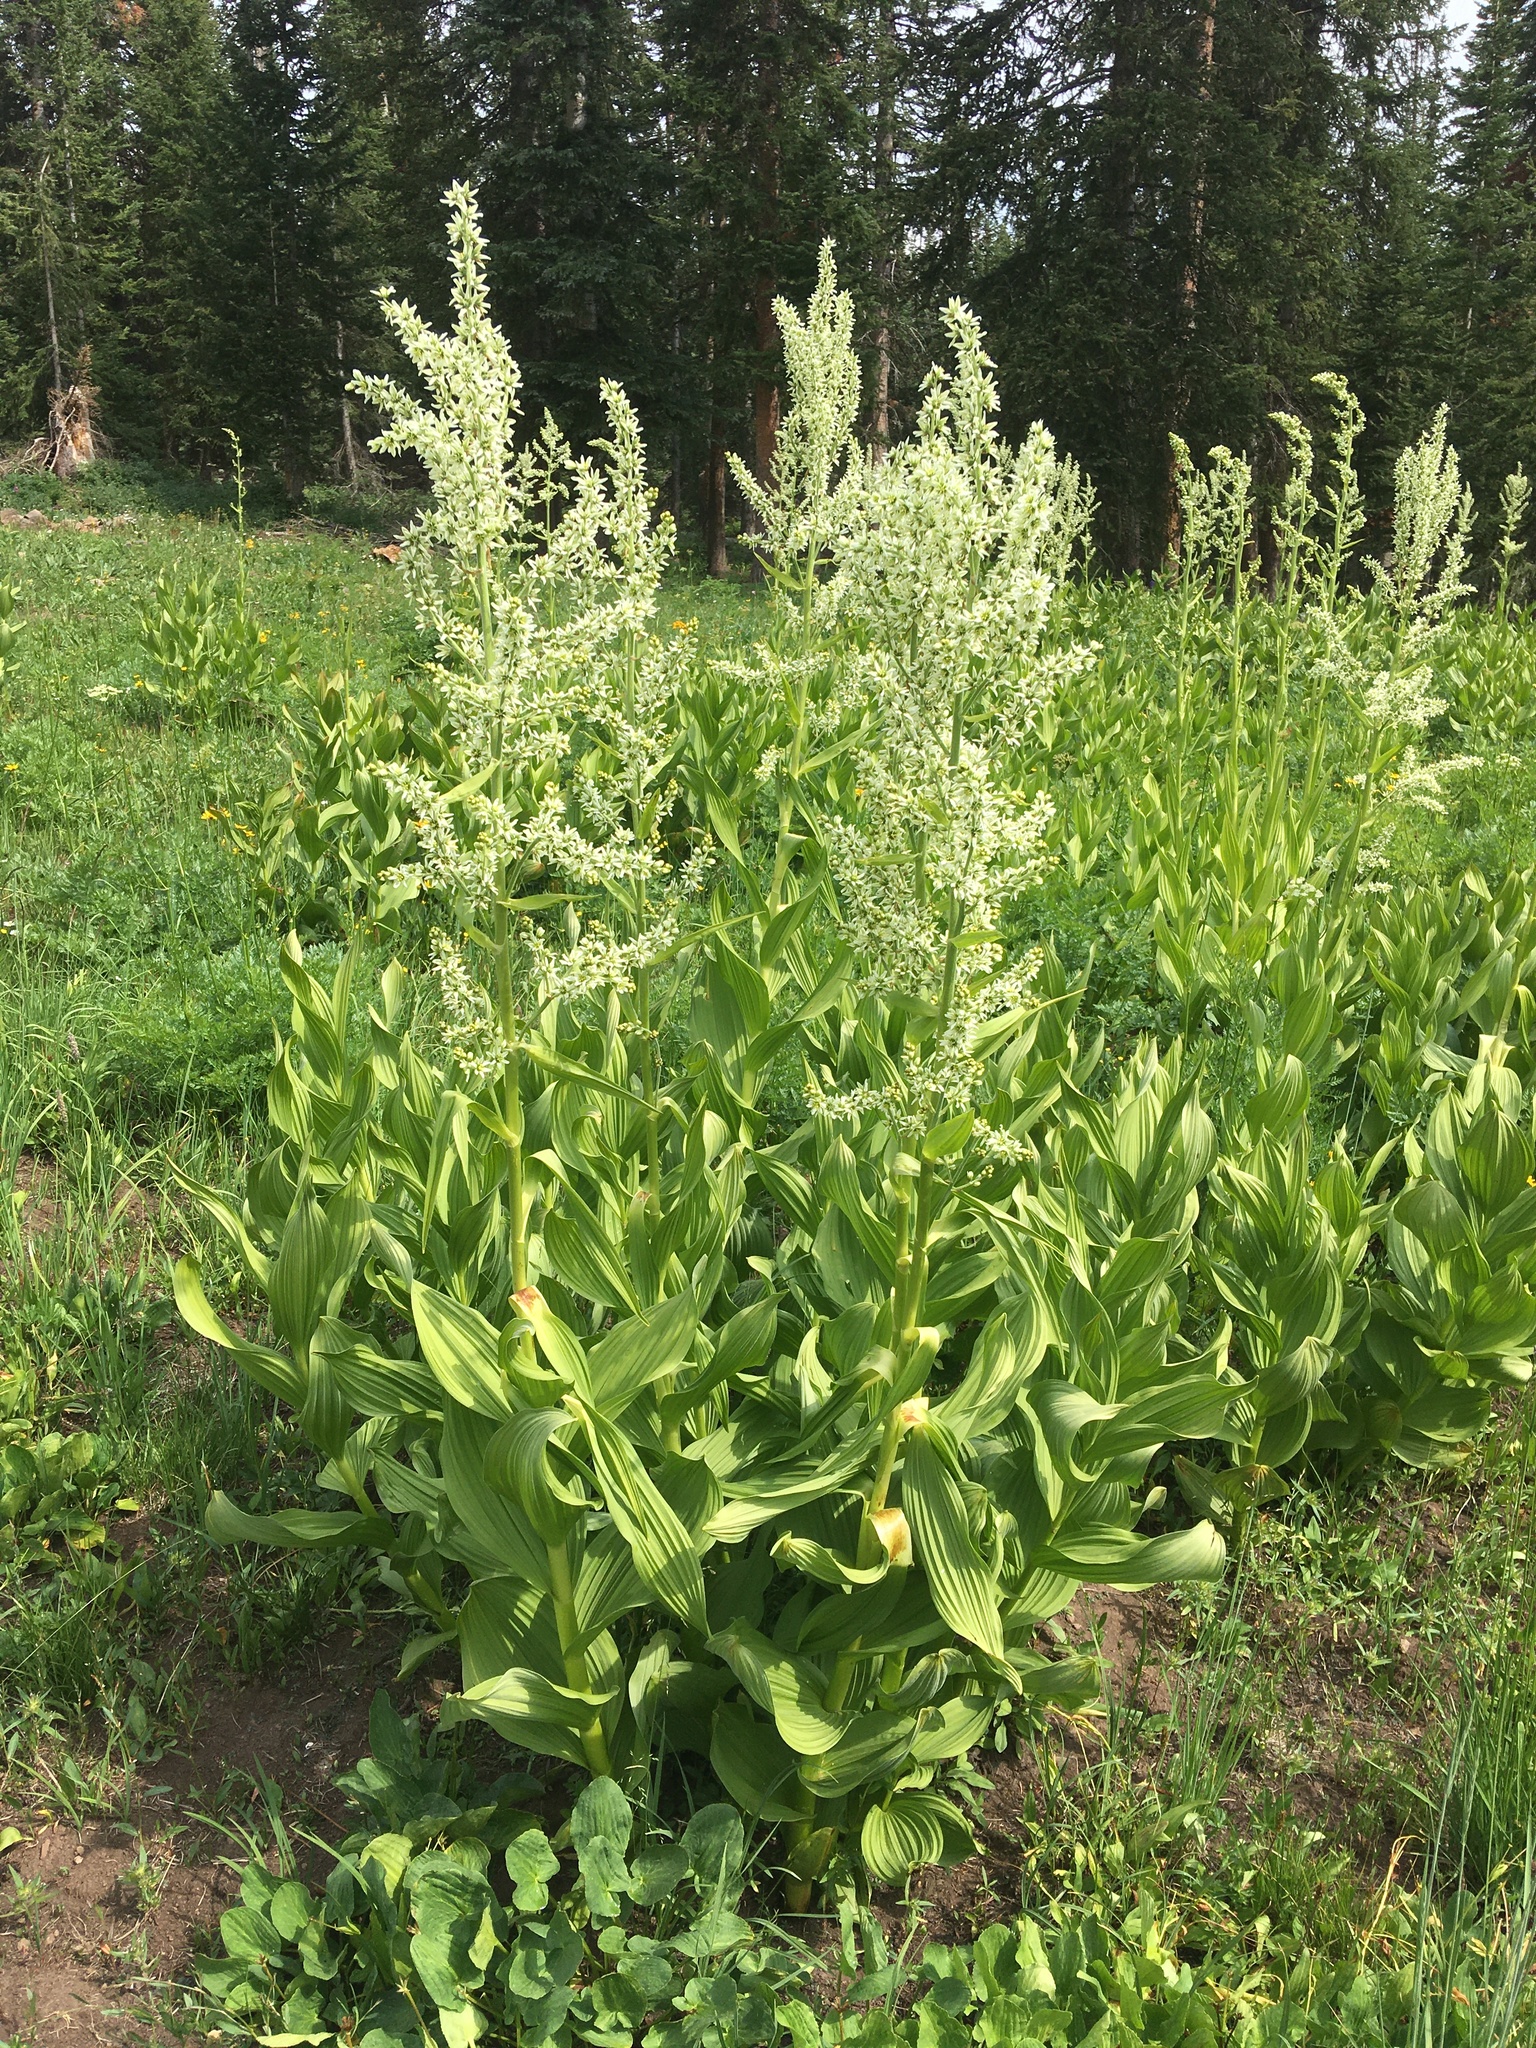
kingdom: Plantae
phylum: Tracheophyta
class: Liliopsida
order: Liliales
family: Melanthiaceae
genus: Veratrum
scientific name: Veratrum californicum
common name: California veratrum
